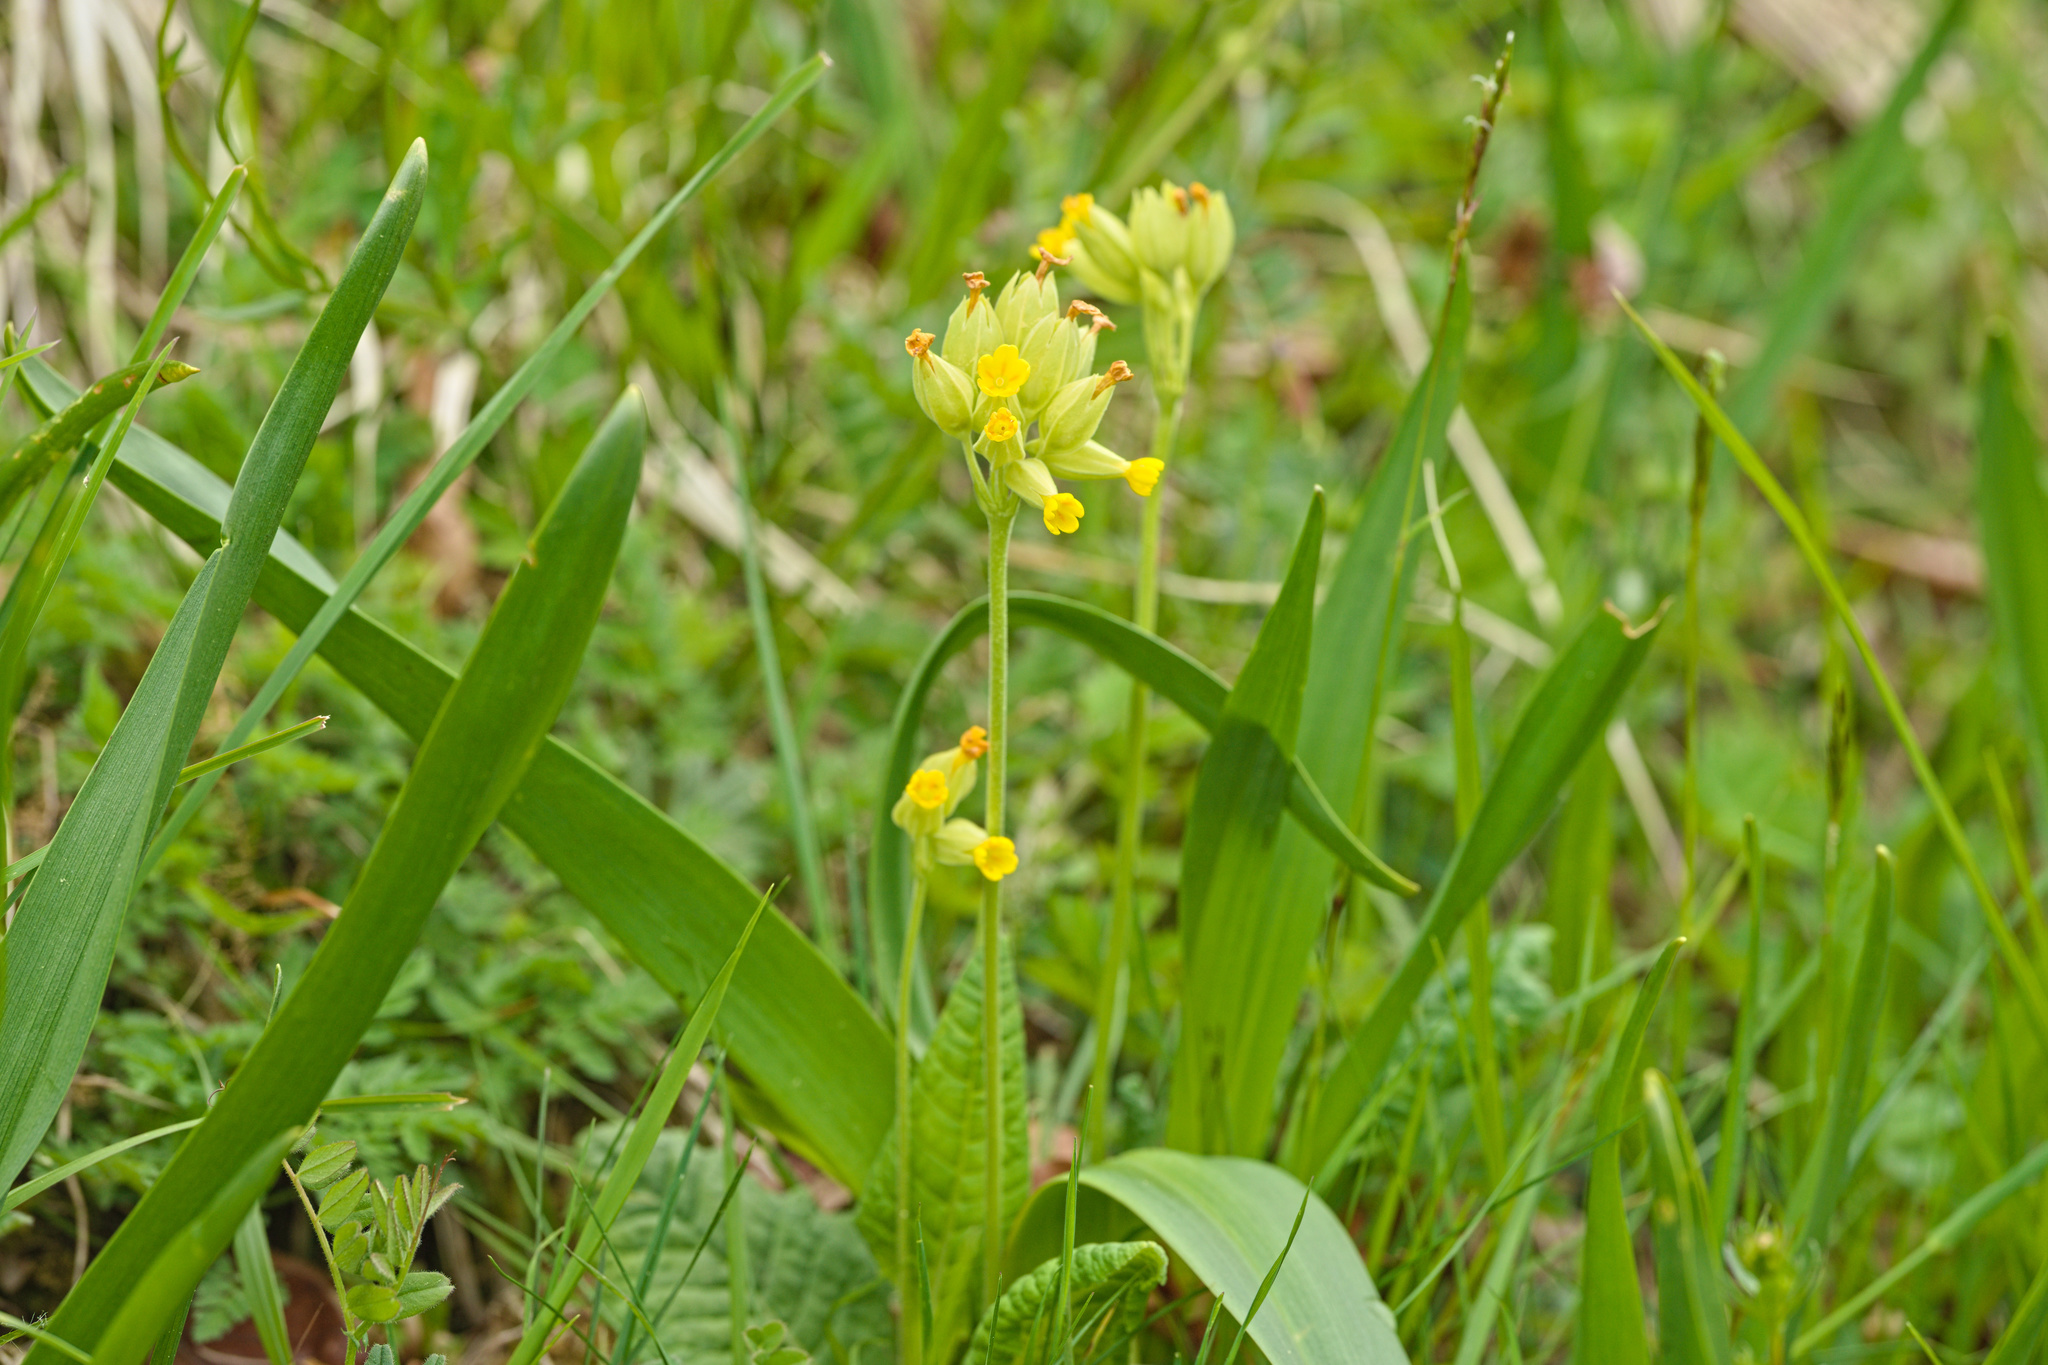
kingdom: Plantae
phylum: Tracheophyta
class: Magnoliopsida
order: Ericales
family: Primulaceae
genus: Primula
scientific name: Primula veris
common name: Cowslip
